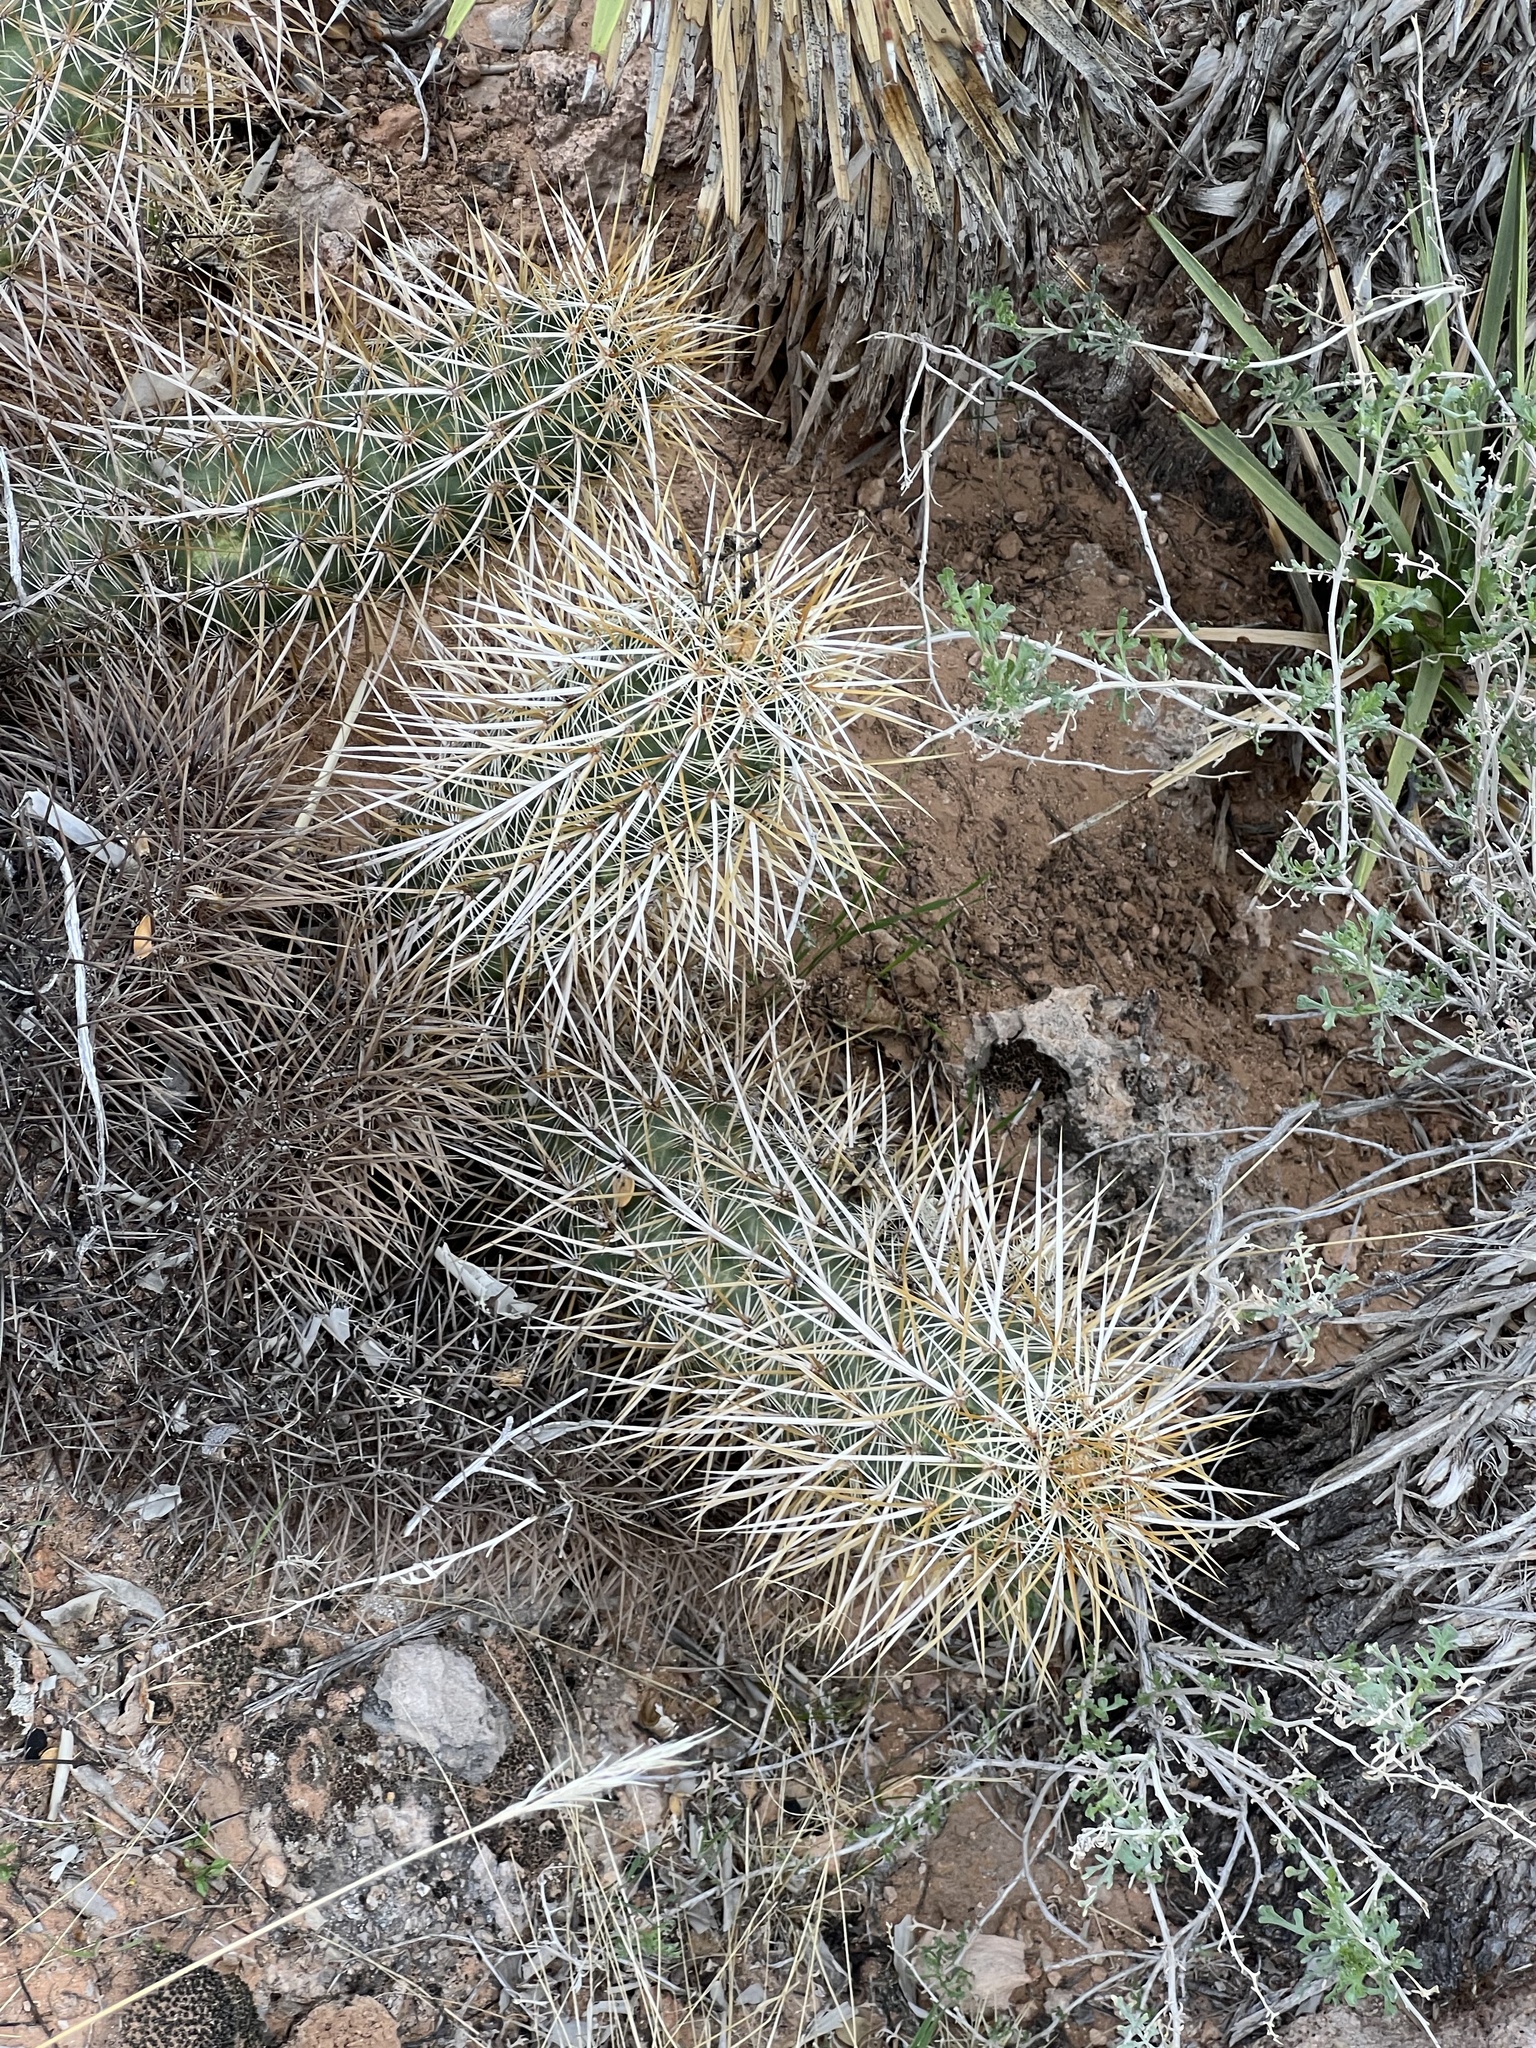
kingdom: Plantae
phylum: Tracheophyta
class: Magnoliopsida
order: Caryophyllales
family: Cactaceae
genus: Echinocereus
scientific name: Echinocereus engelmannii
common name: Engelmann's hedgehog cactus
